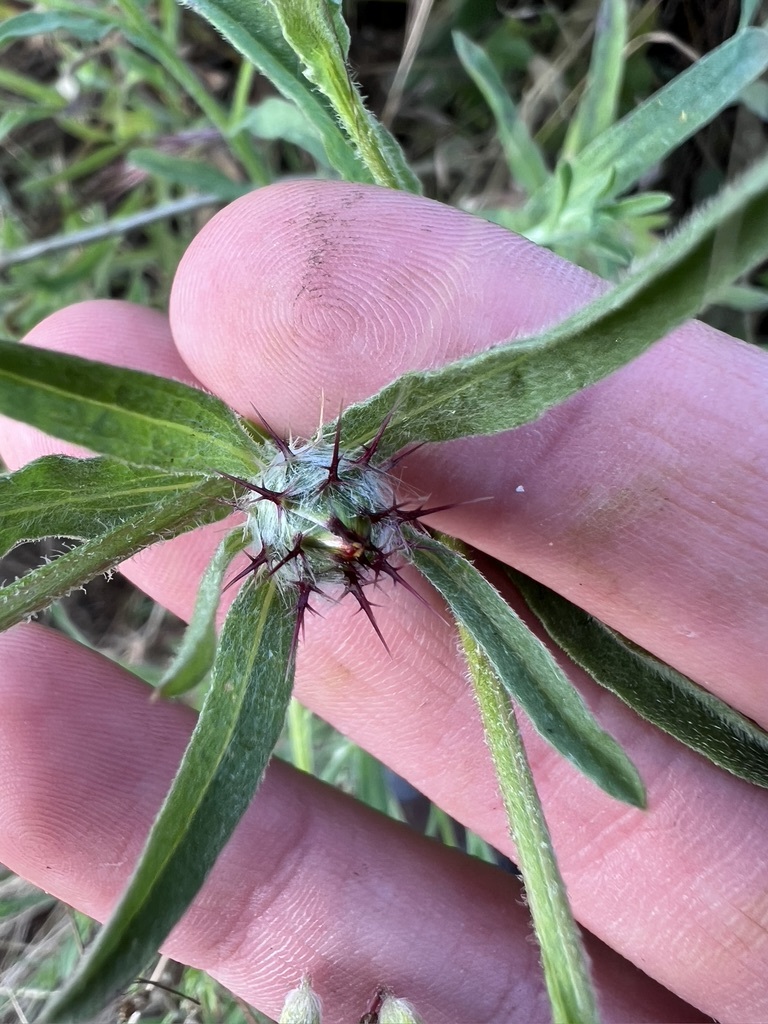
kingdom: Plantae
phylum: Tracheophyta
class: Magnoliopsida
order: Asterales
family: Asteraceae
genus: Centaurea
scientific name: Centaurea melitensis
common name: Maltese star-thistle
